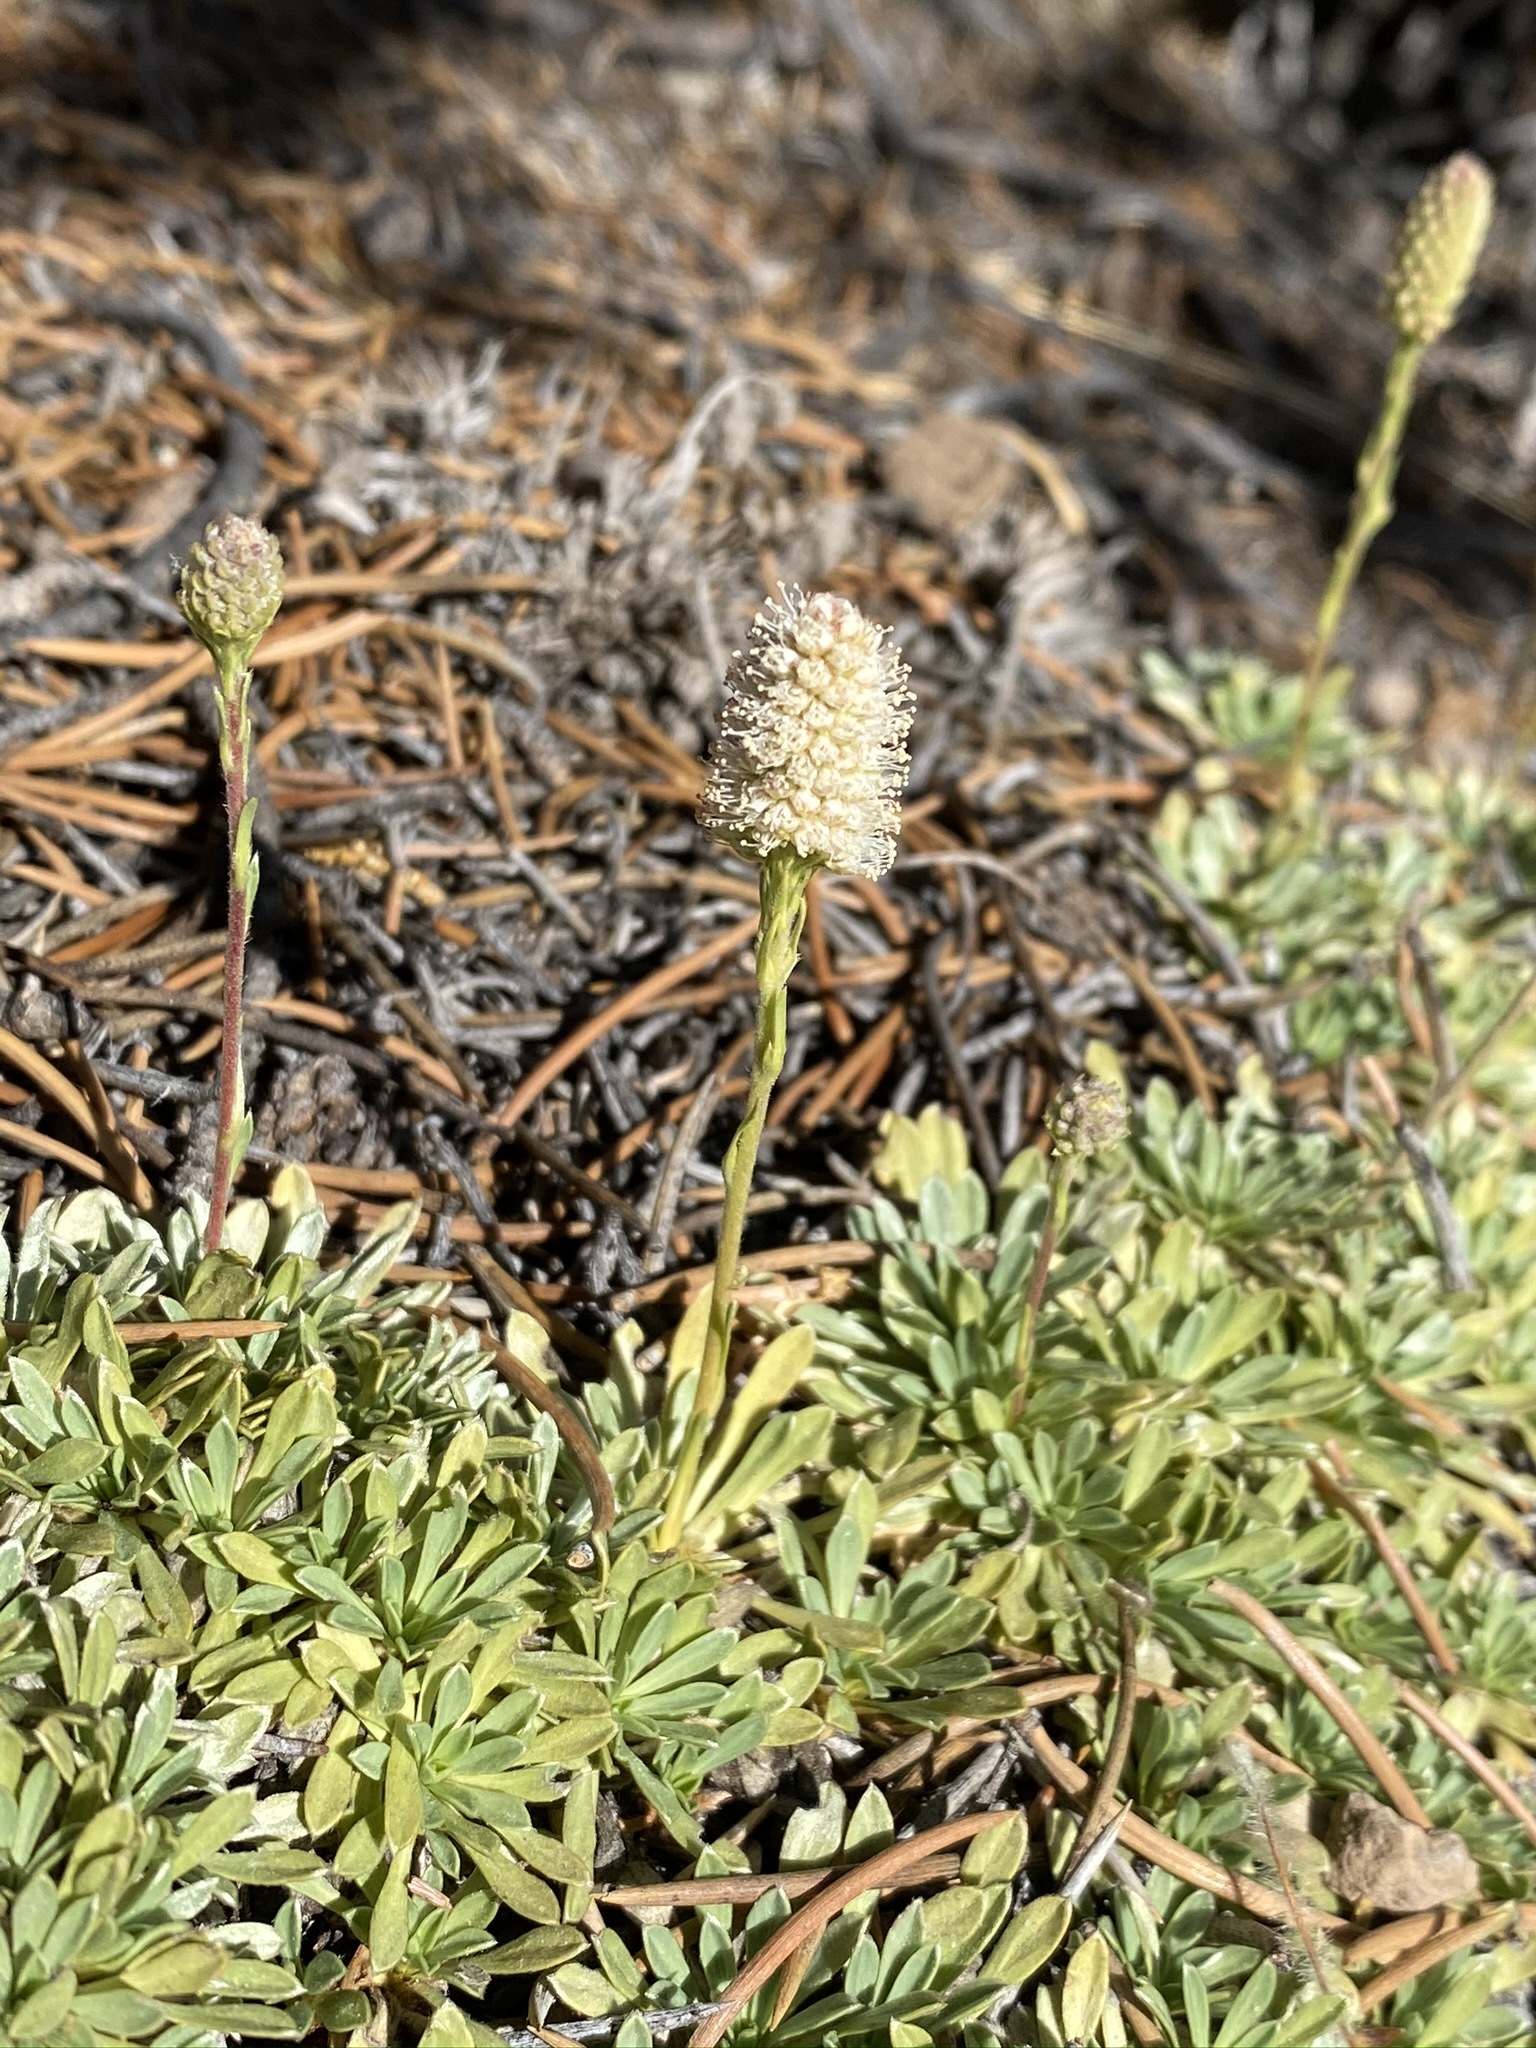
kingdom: Plantae
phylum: Tracheophyta
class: Magnoliopsida
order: Rosales
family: Rosaceae
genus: Petrophytum
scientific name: Petrophytum caespitosum
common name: Mat rockspirea
